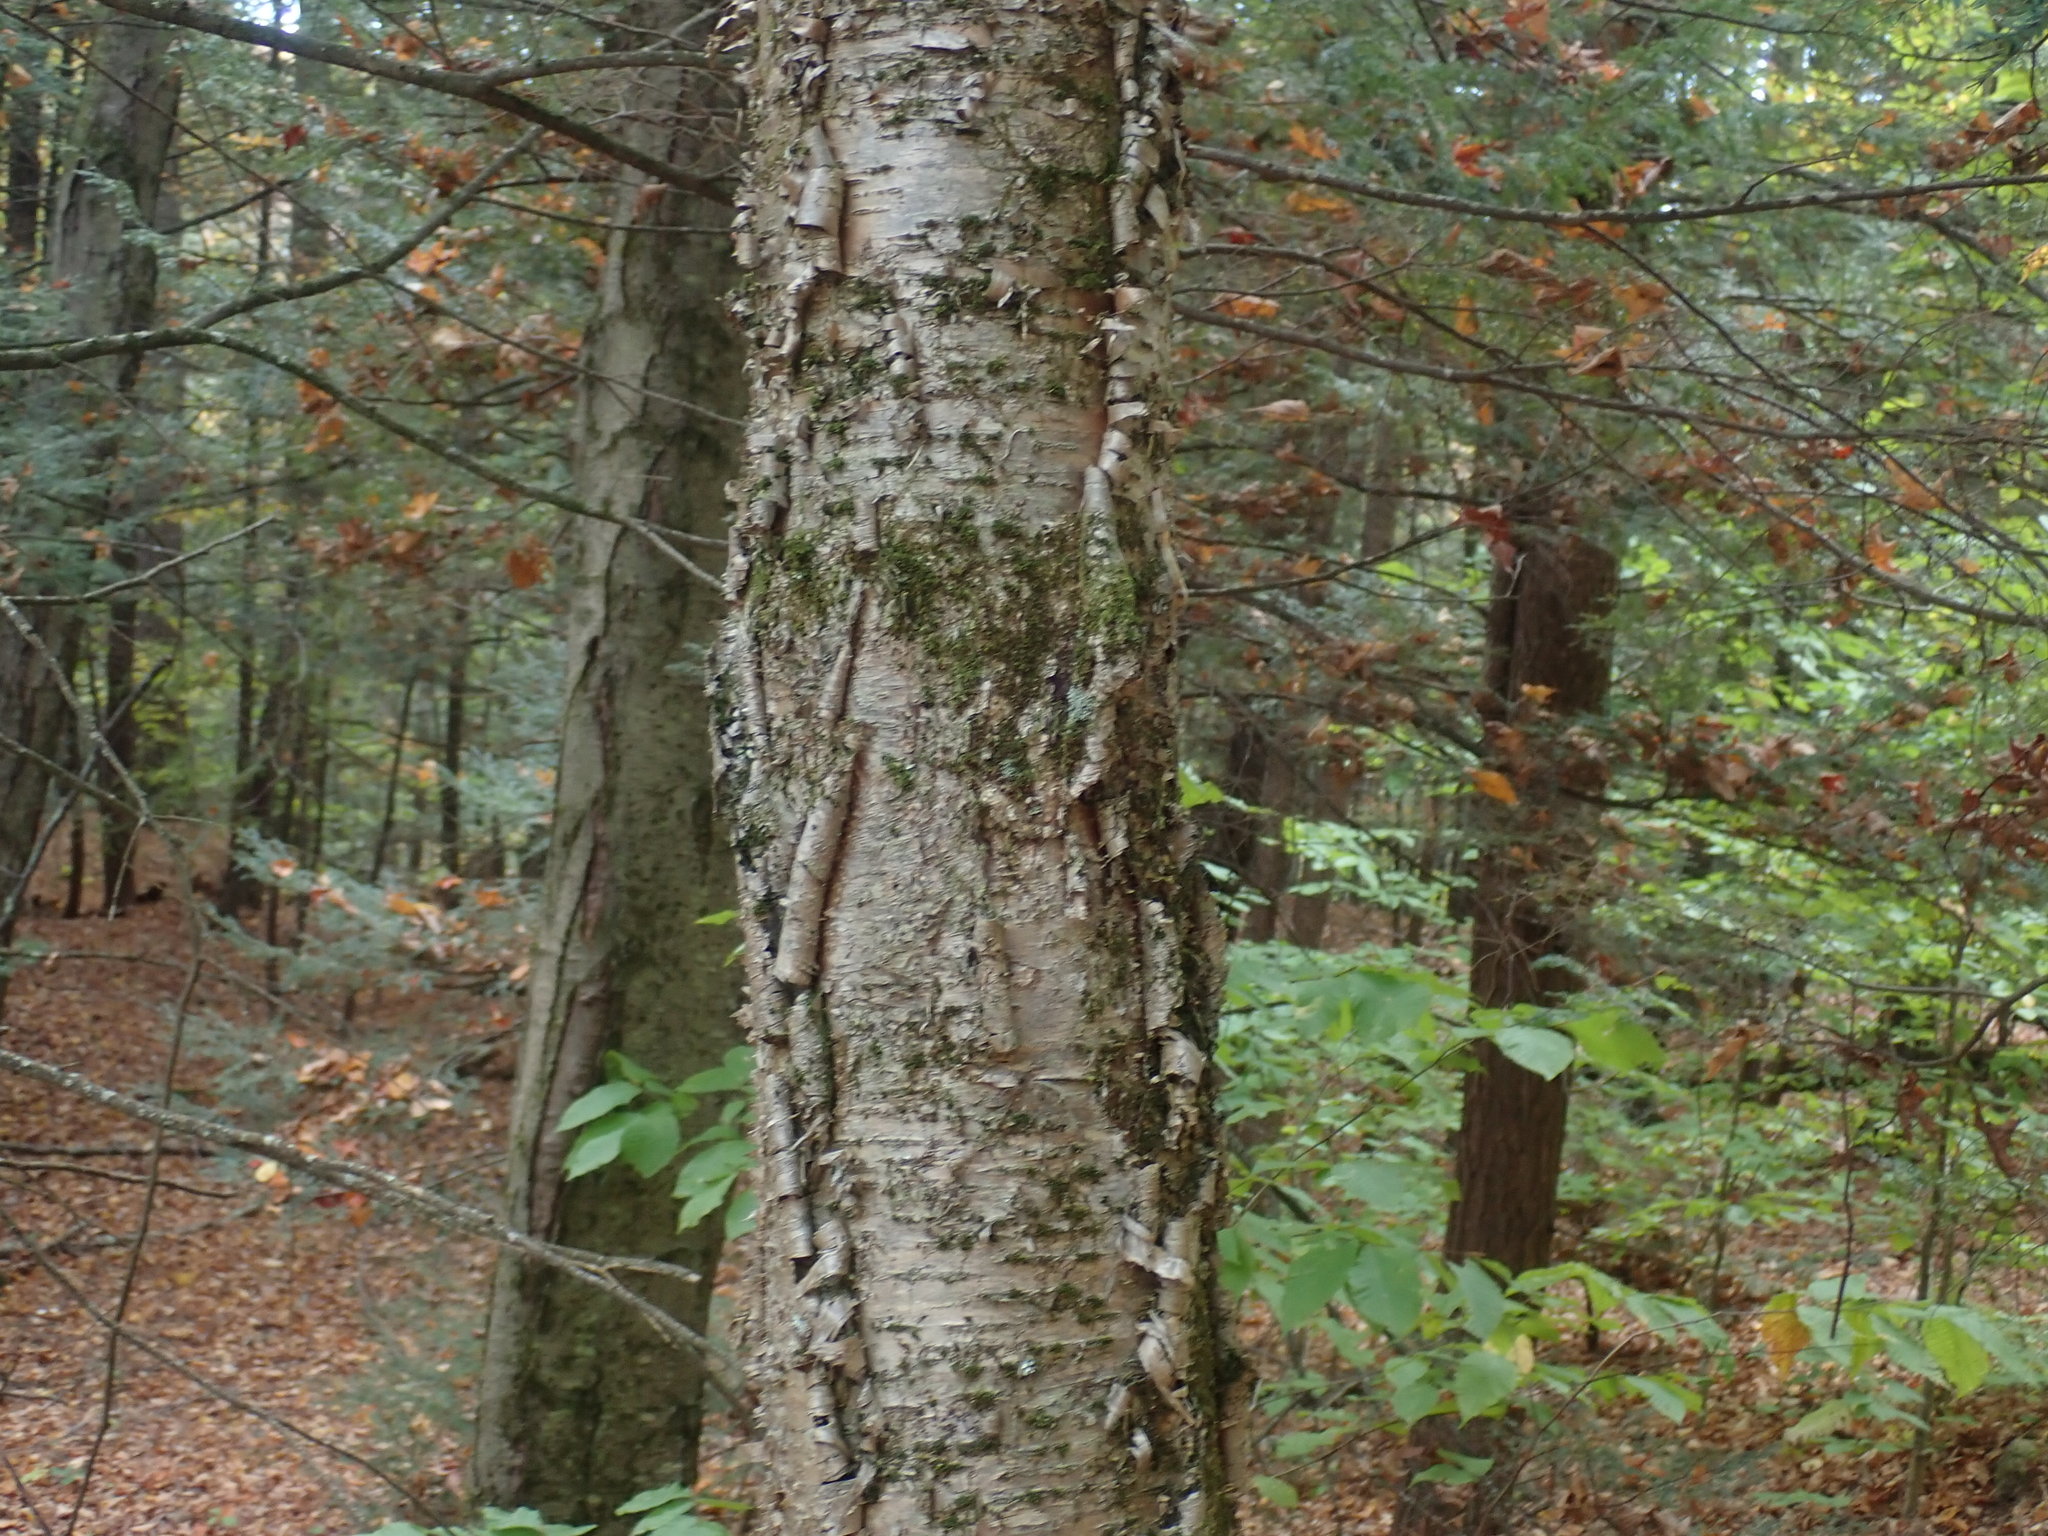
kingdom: Plantae
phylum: Tracheophyta
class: Magnoliopsida
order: Fagales
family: Betulaceae
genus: Betula
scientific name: Betula alleghaniensis
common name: Yellow birch
